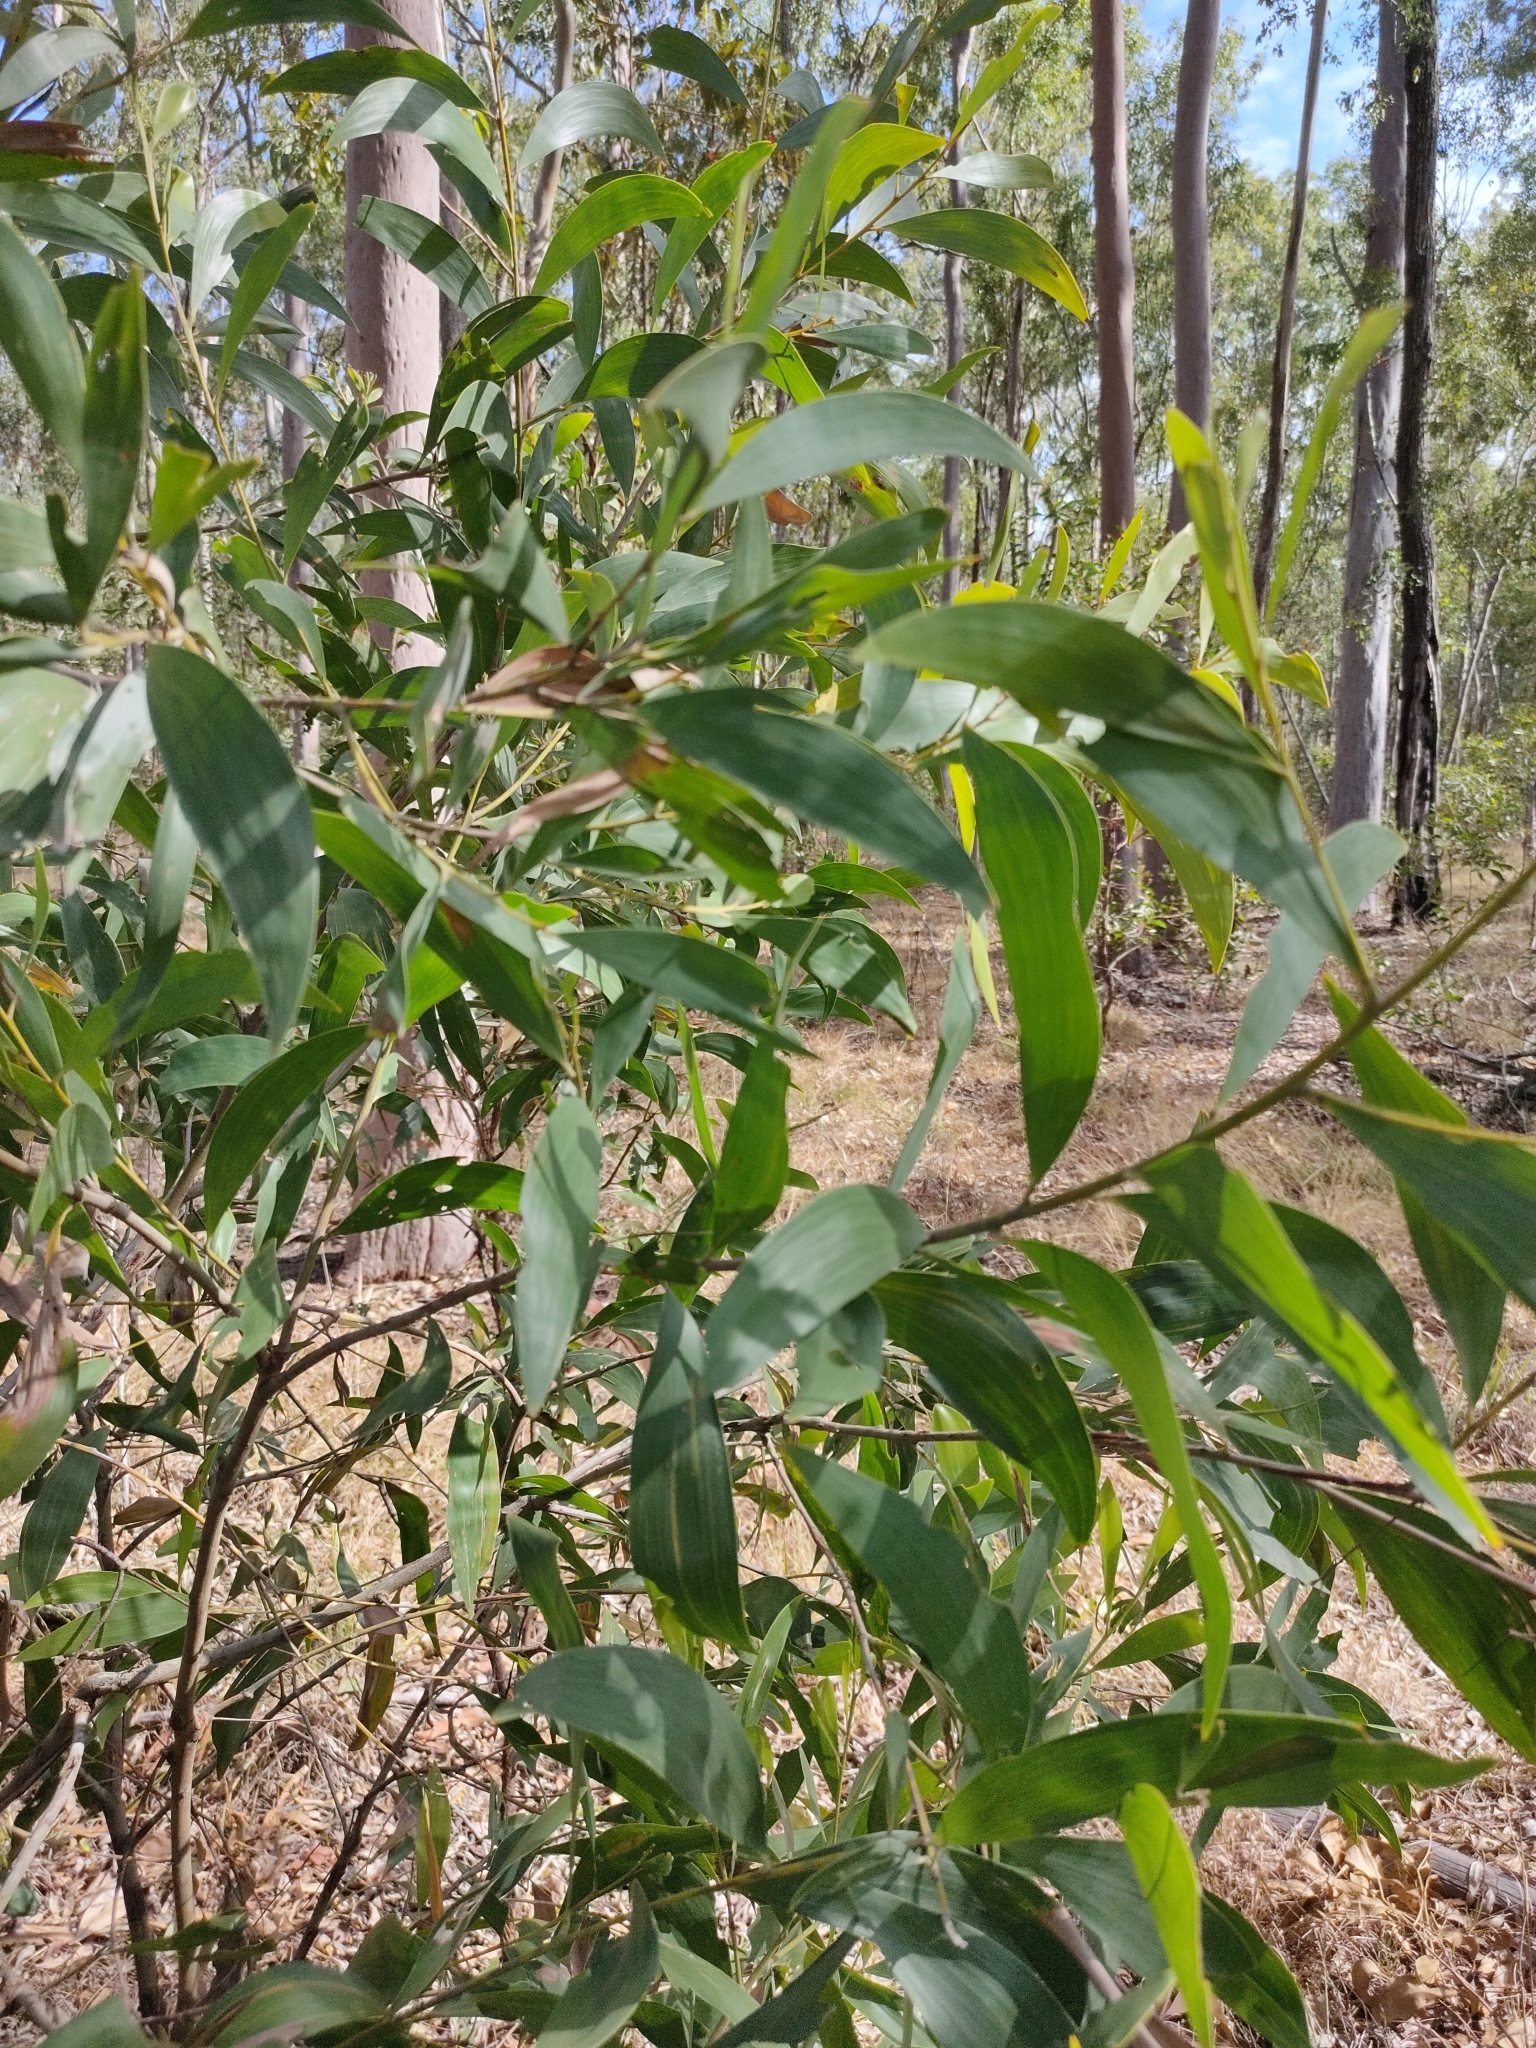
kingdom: Plantae
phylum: Tracheophyta
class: Magnoliopsida
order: Fabales
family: Fabaceae
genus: Acacia
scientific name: Acacia disparrima
